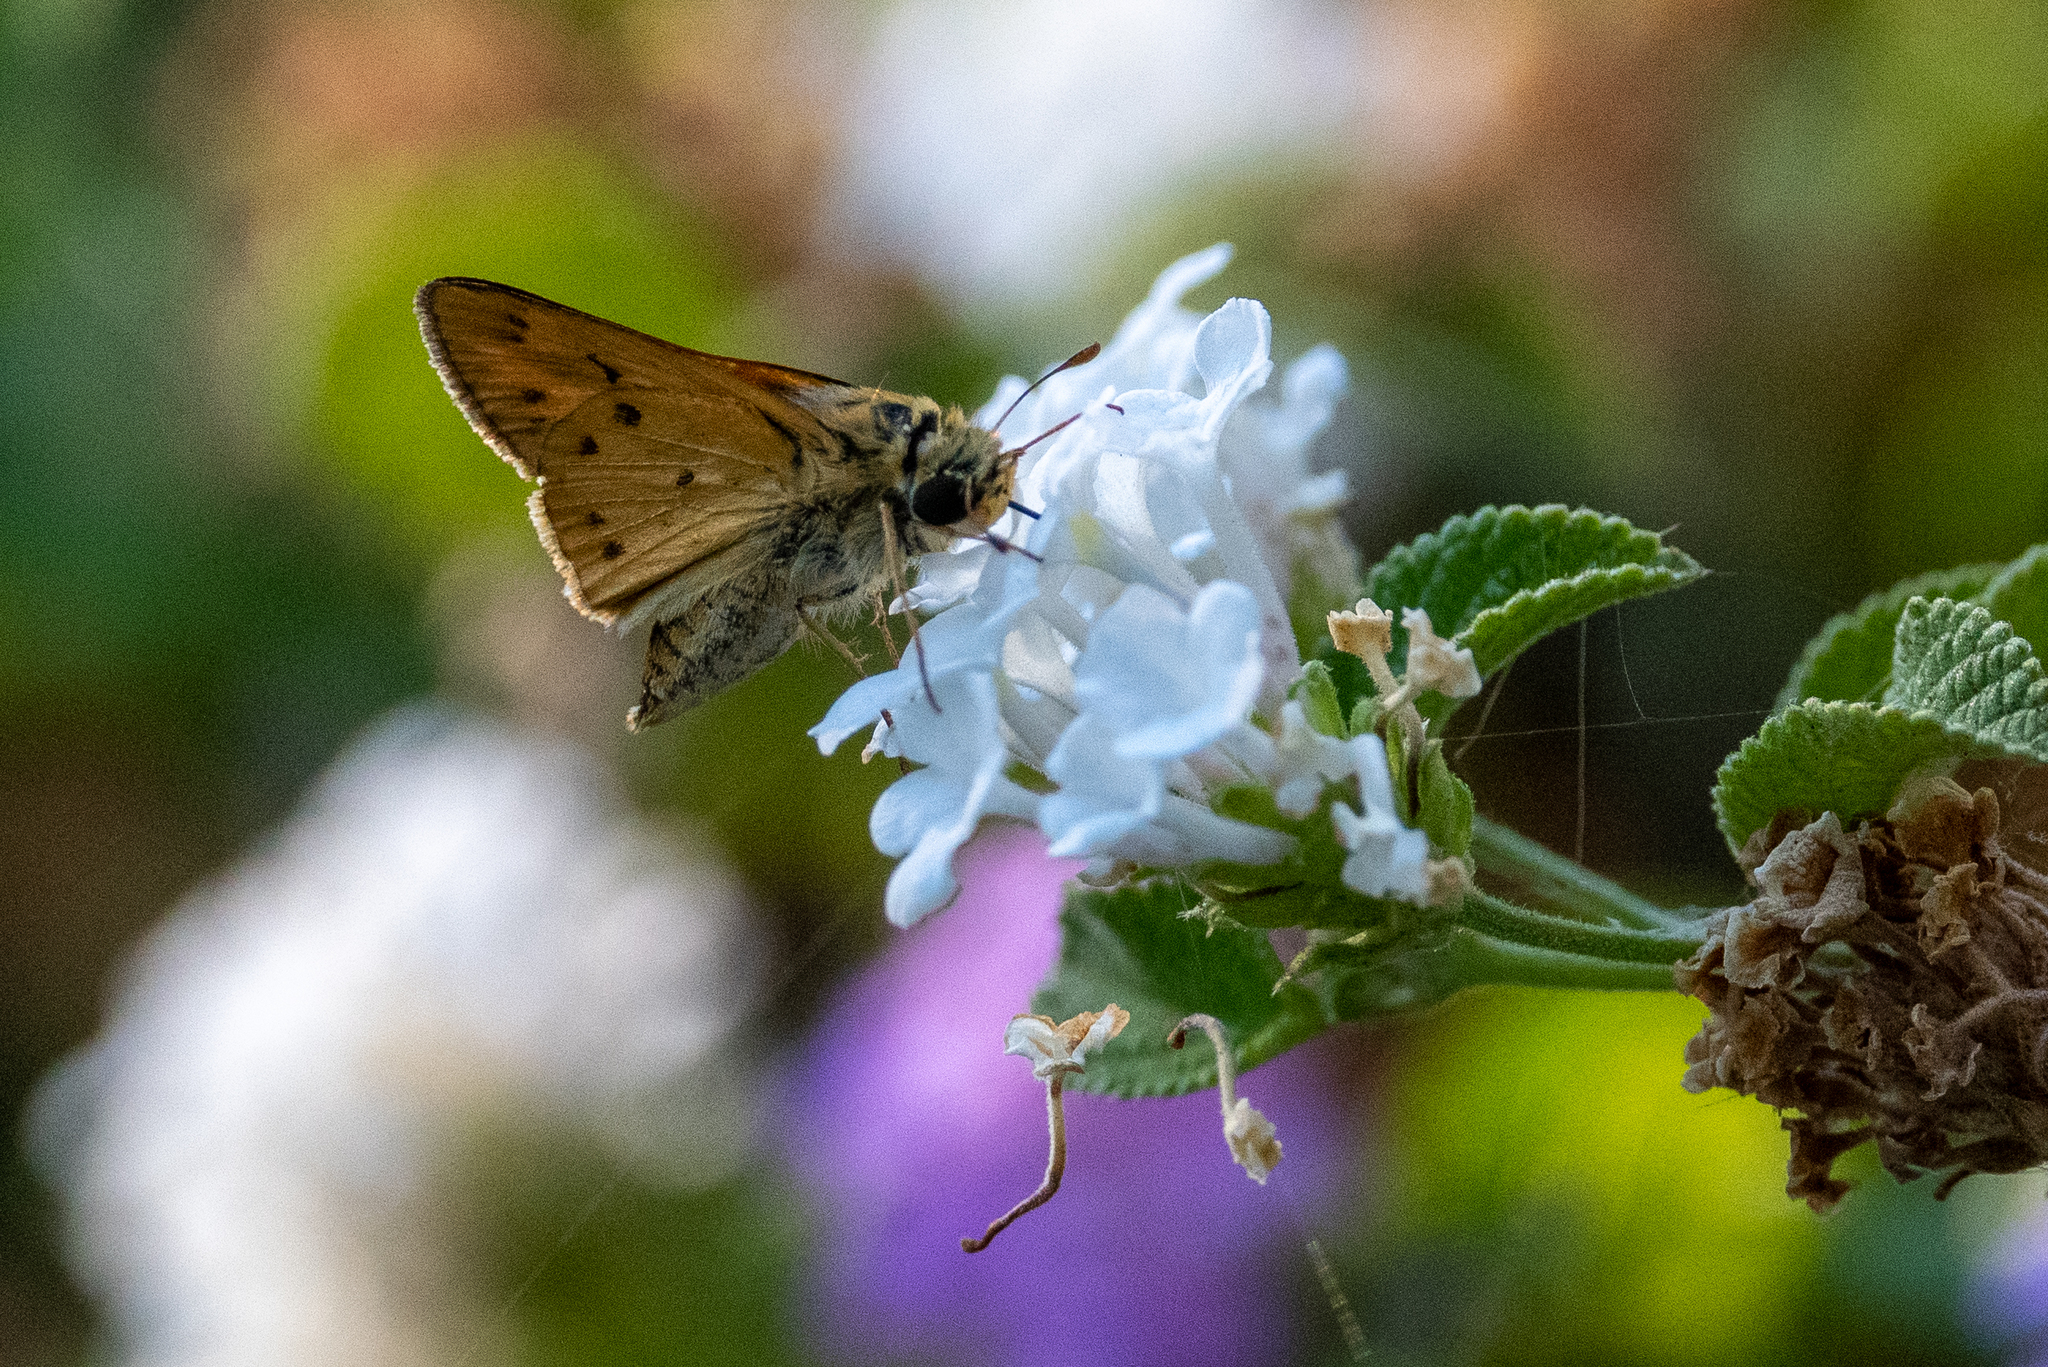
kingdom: Animalia
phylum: Arthropoda
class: Insecta
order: Lepidoptera
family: Hesperiidae
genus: Hylephila
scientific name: Hylephila phyleus
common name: Fiery skipper
